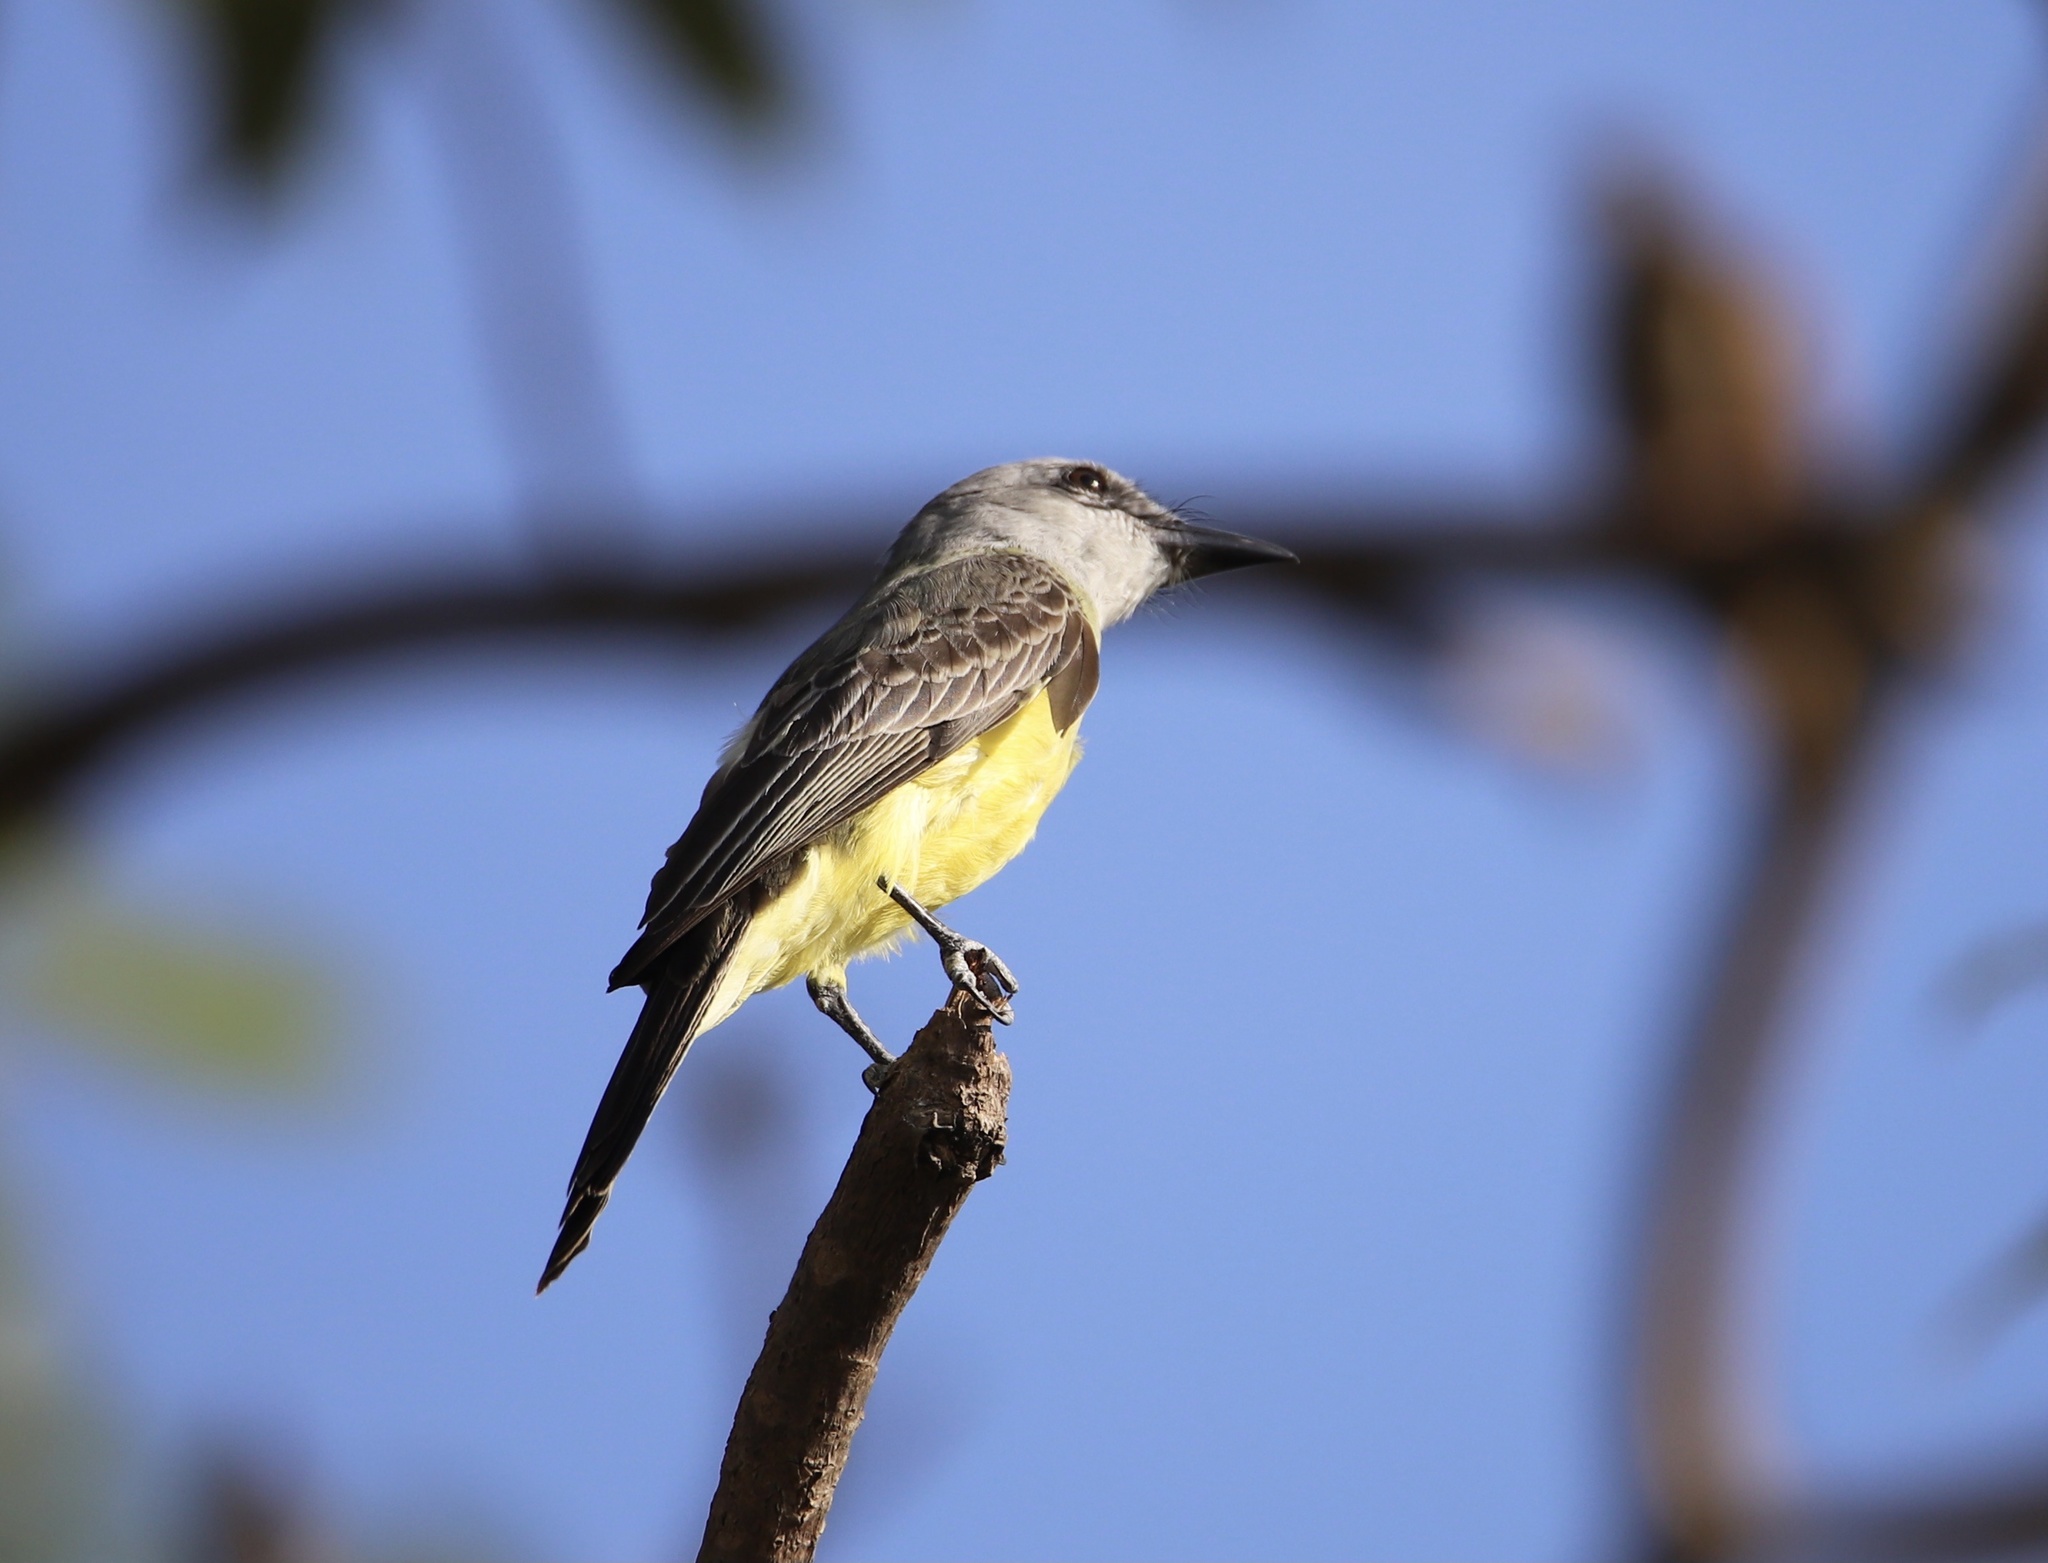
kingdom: Animalia
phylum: Chordata
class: Aves
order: Passeriformes
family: Tyrannidae
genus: Tyrannus
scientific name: Tyrannus melancholicus
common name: Tropical kingbird
